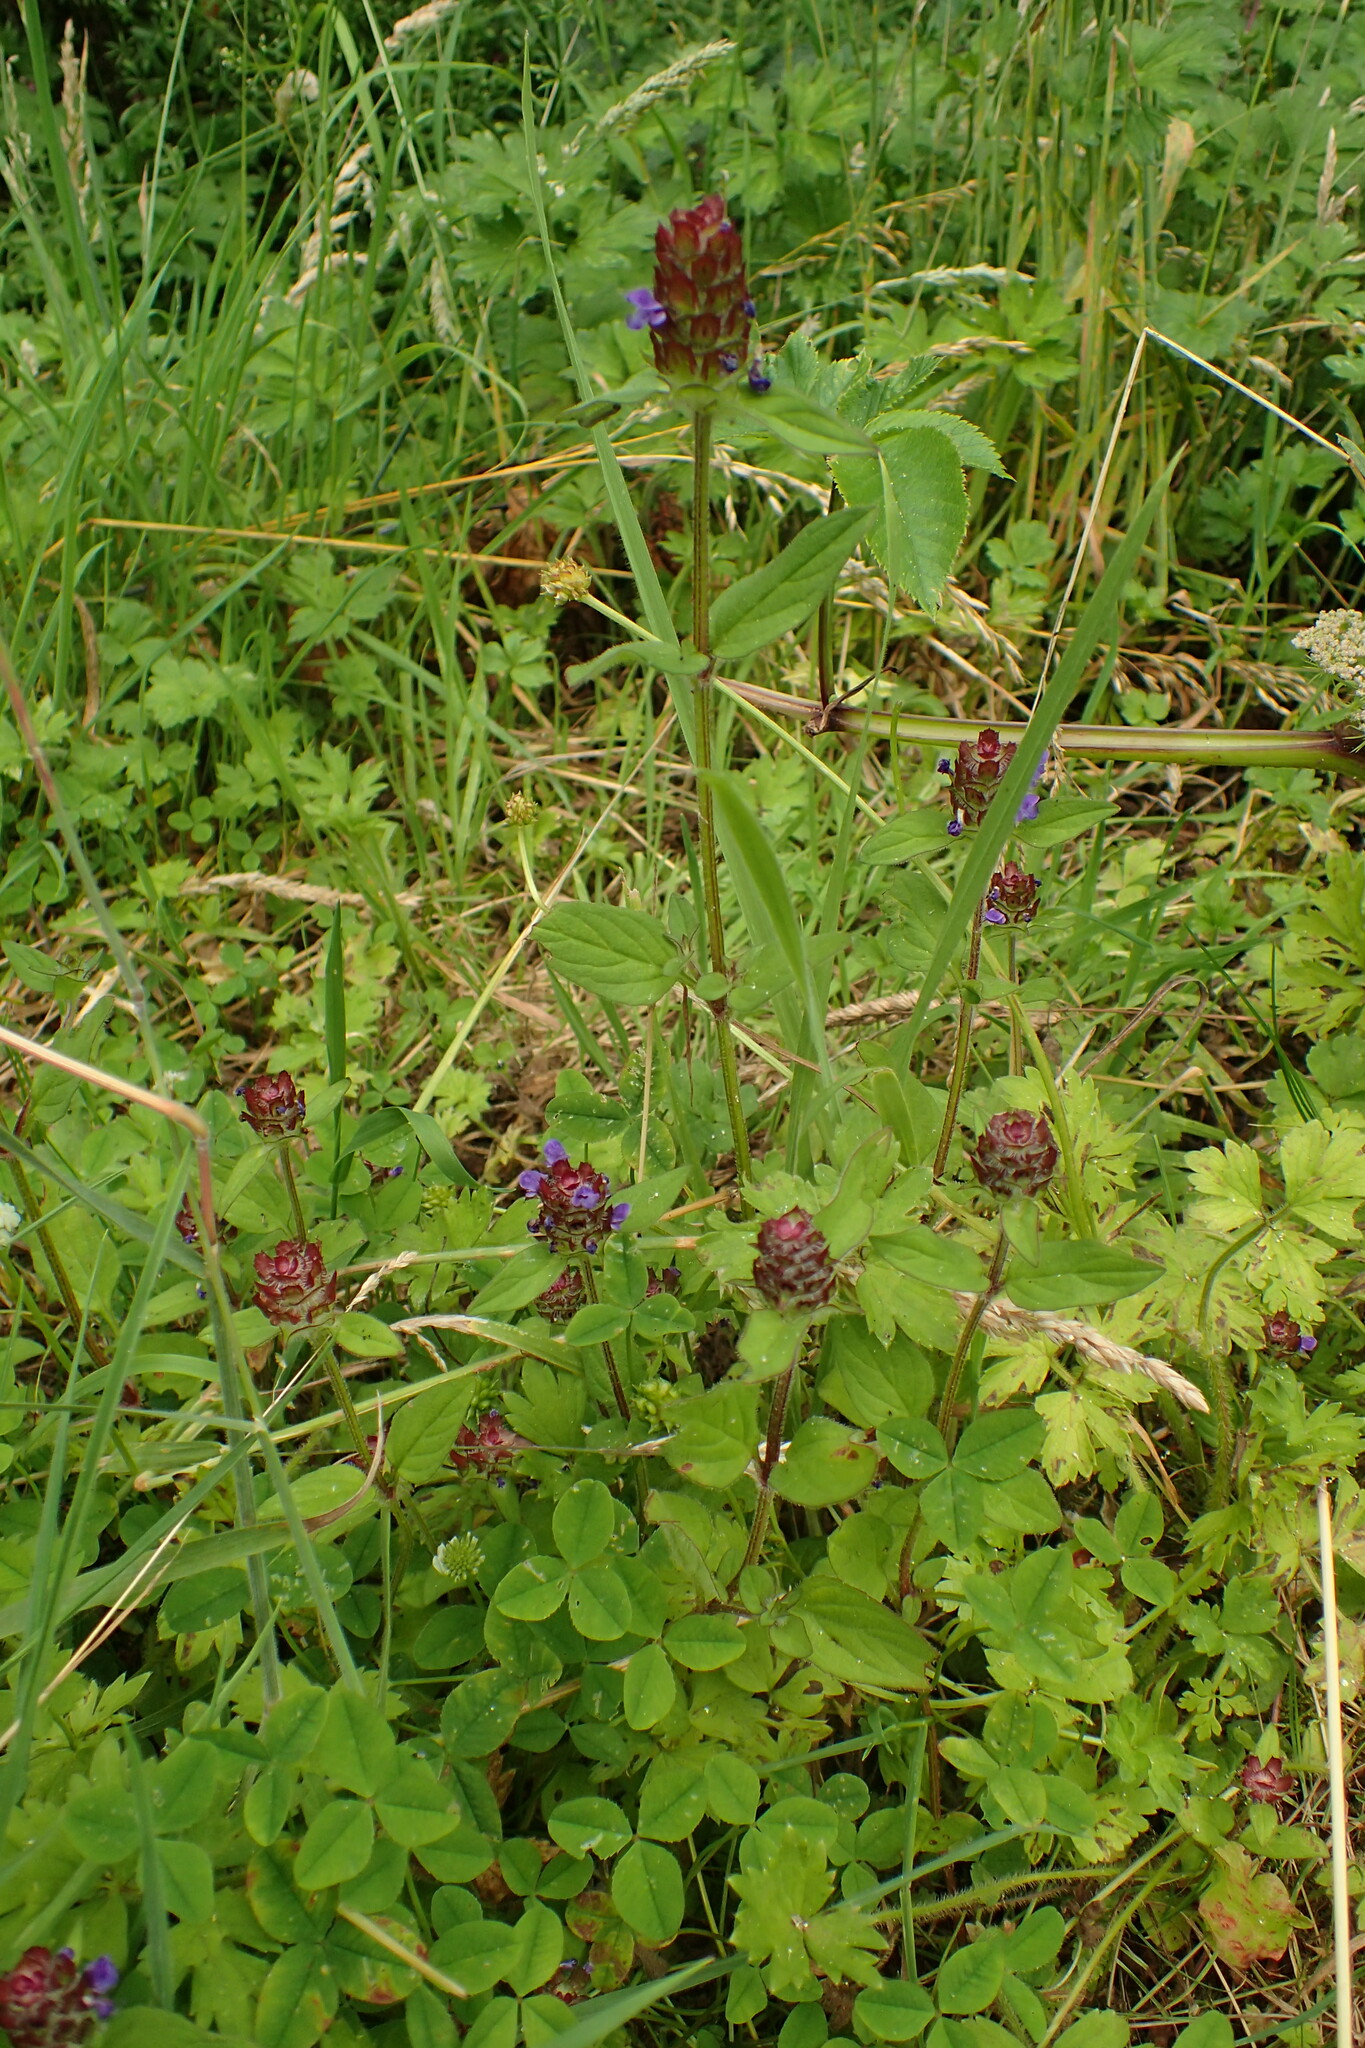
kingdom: Plantae
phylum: Tracheophyta
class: Magnoliopsida
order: Lamiales
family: Lamiaceae
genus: Prunella
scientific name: Prunella vulgaris
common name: Heal-all
